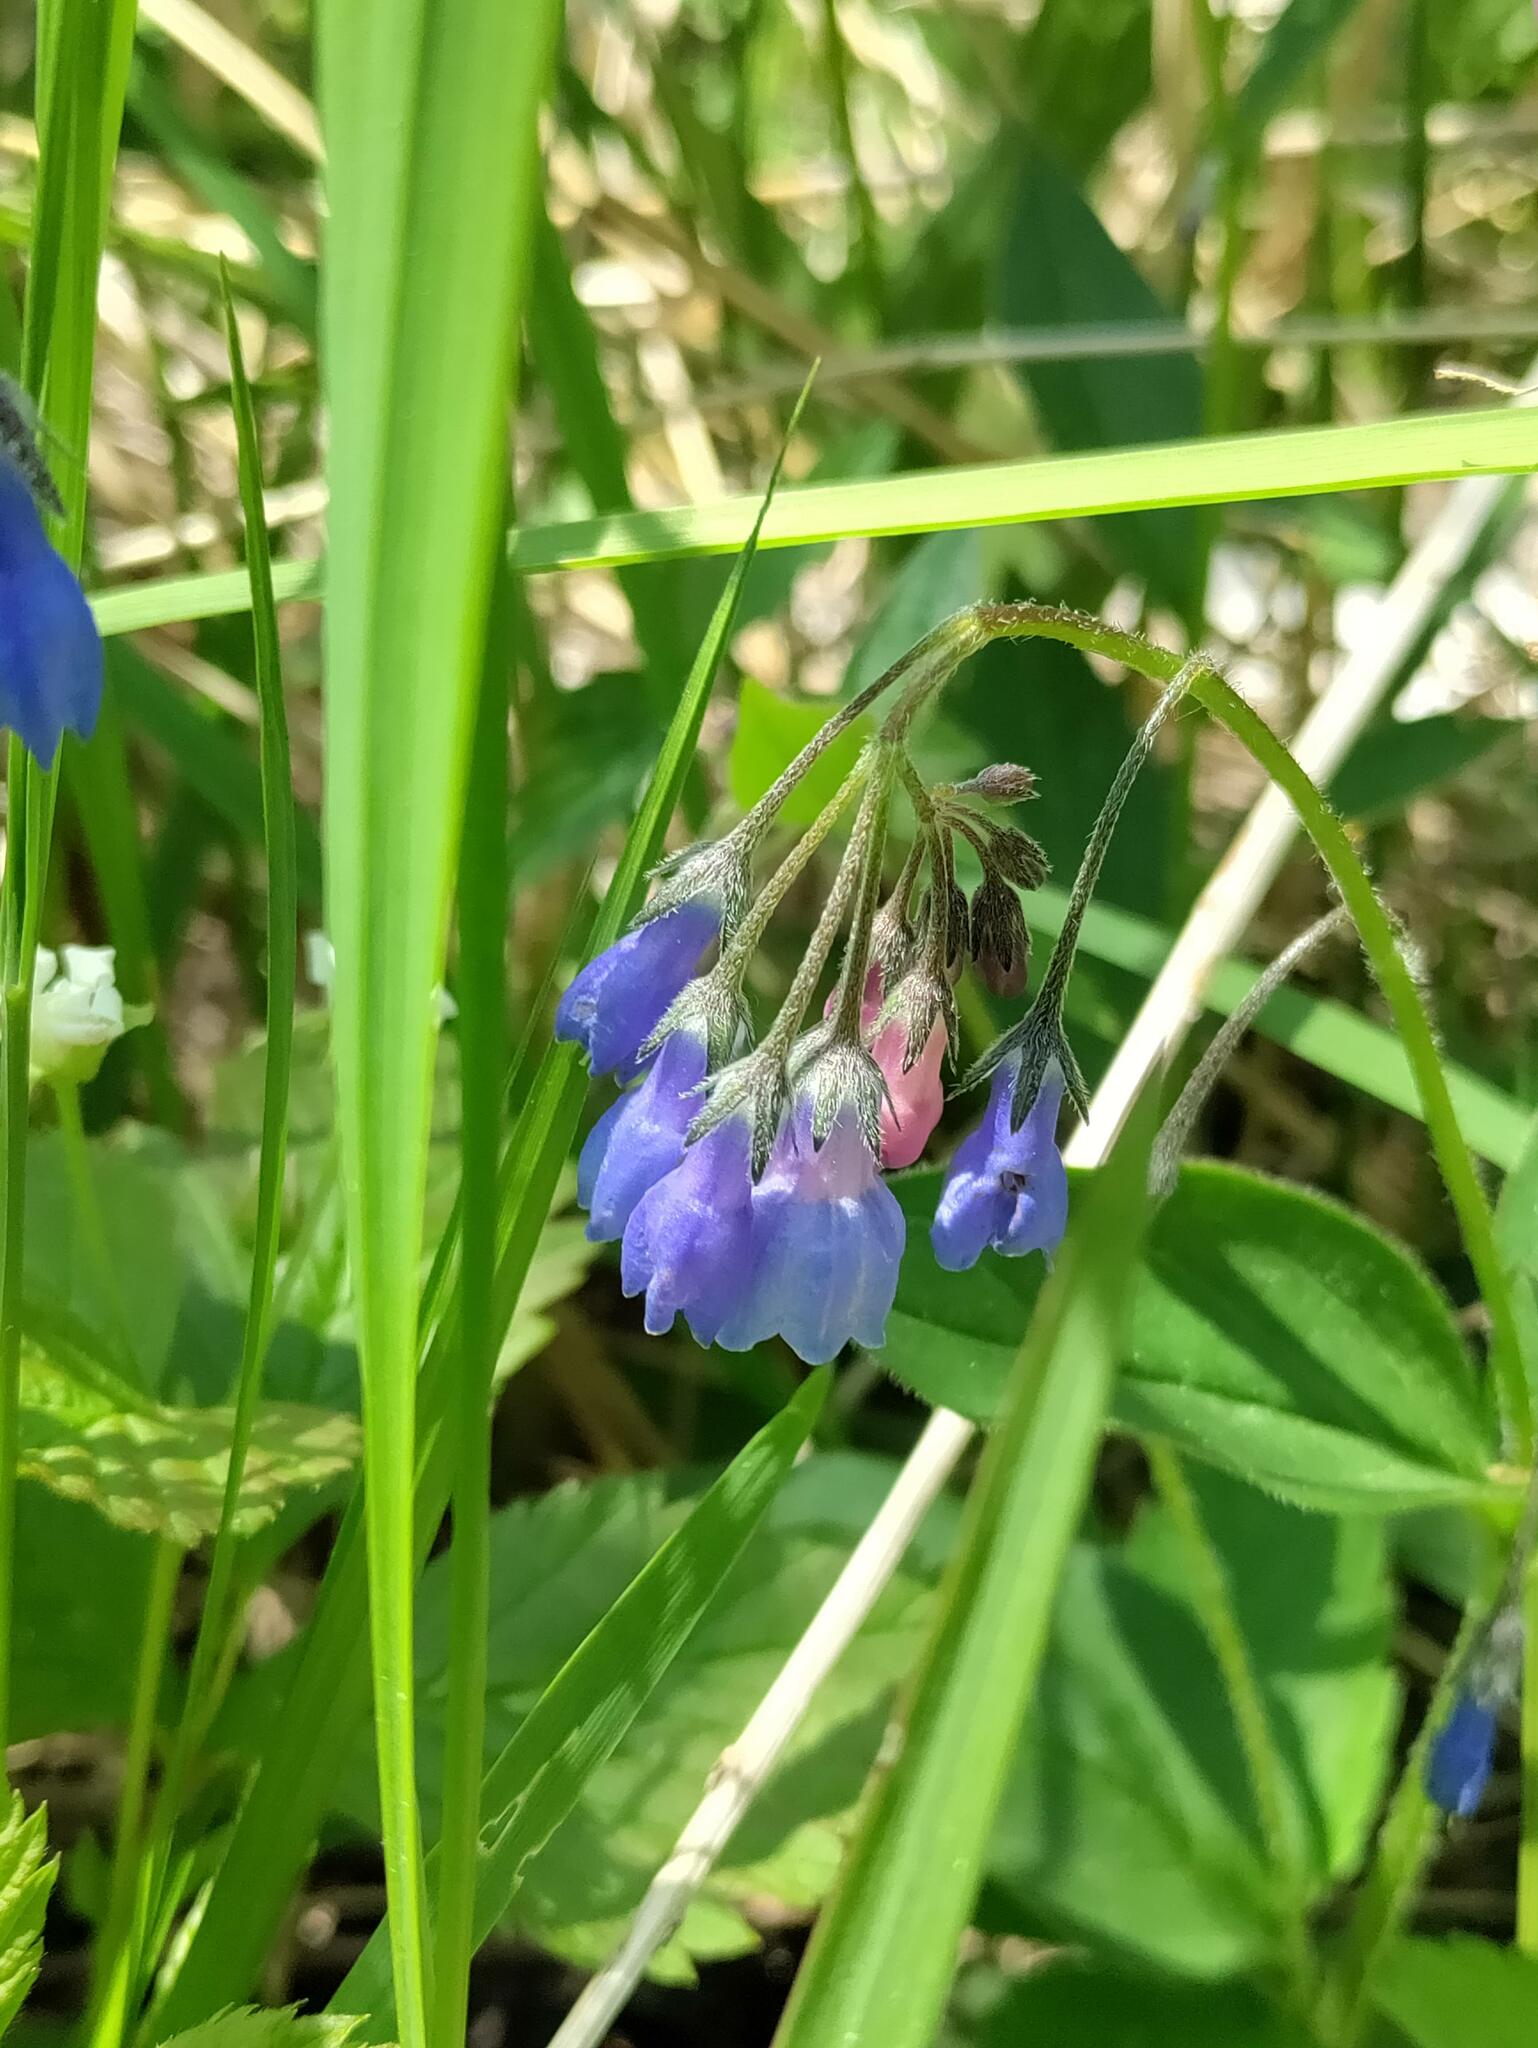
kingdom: Plantae
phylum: Tracheophyta
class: Magnoliopsida
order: Boraginales
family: Boraginaceae
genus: Mertensia
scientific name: Mertensia paniculata
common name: Panicled bluebells
